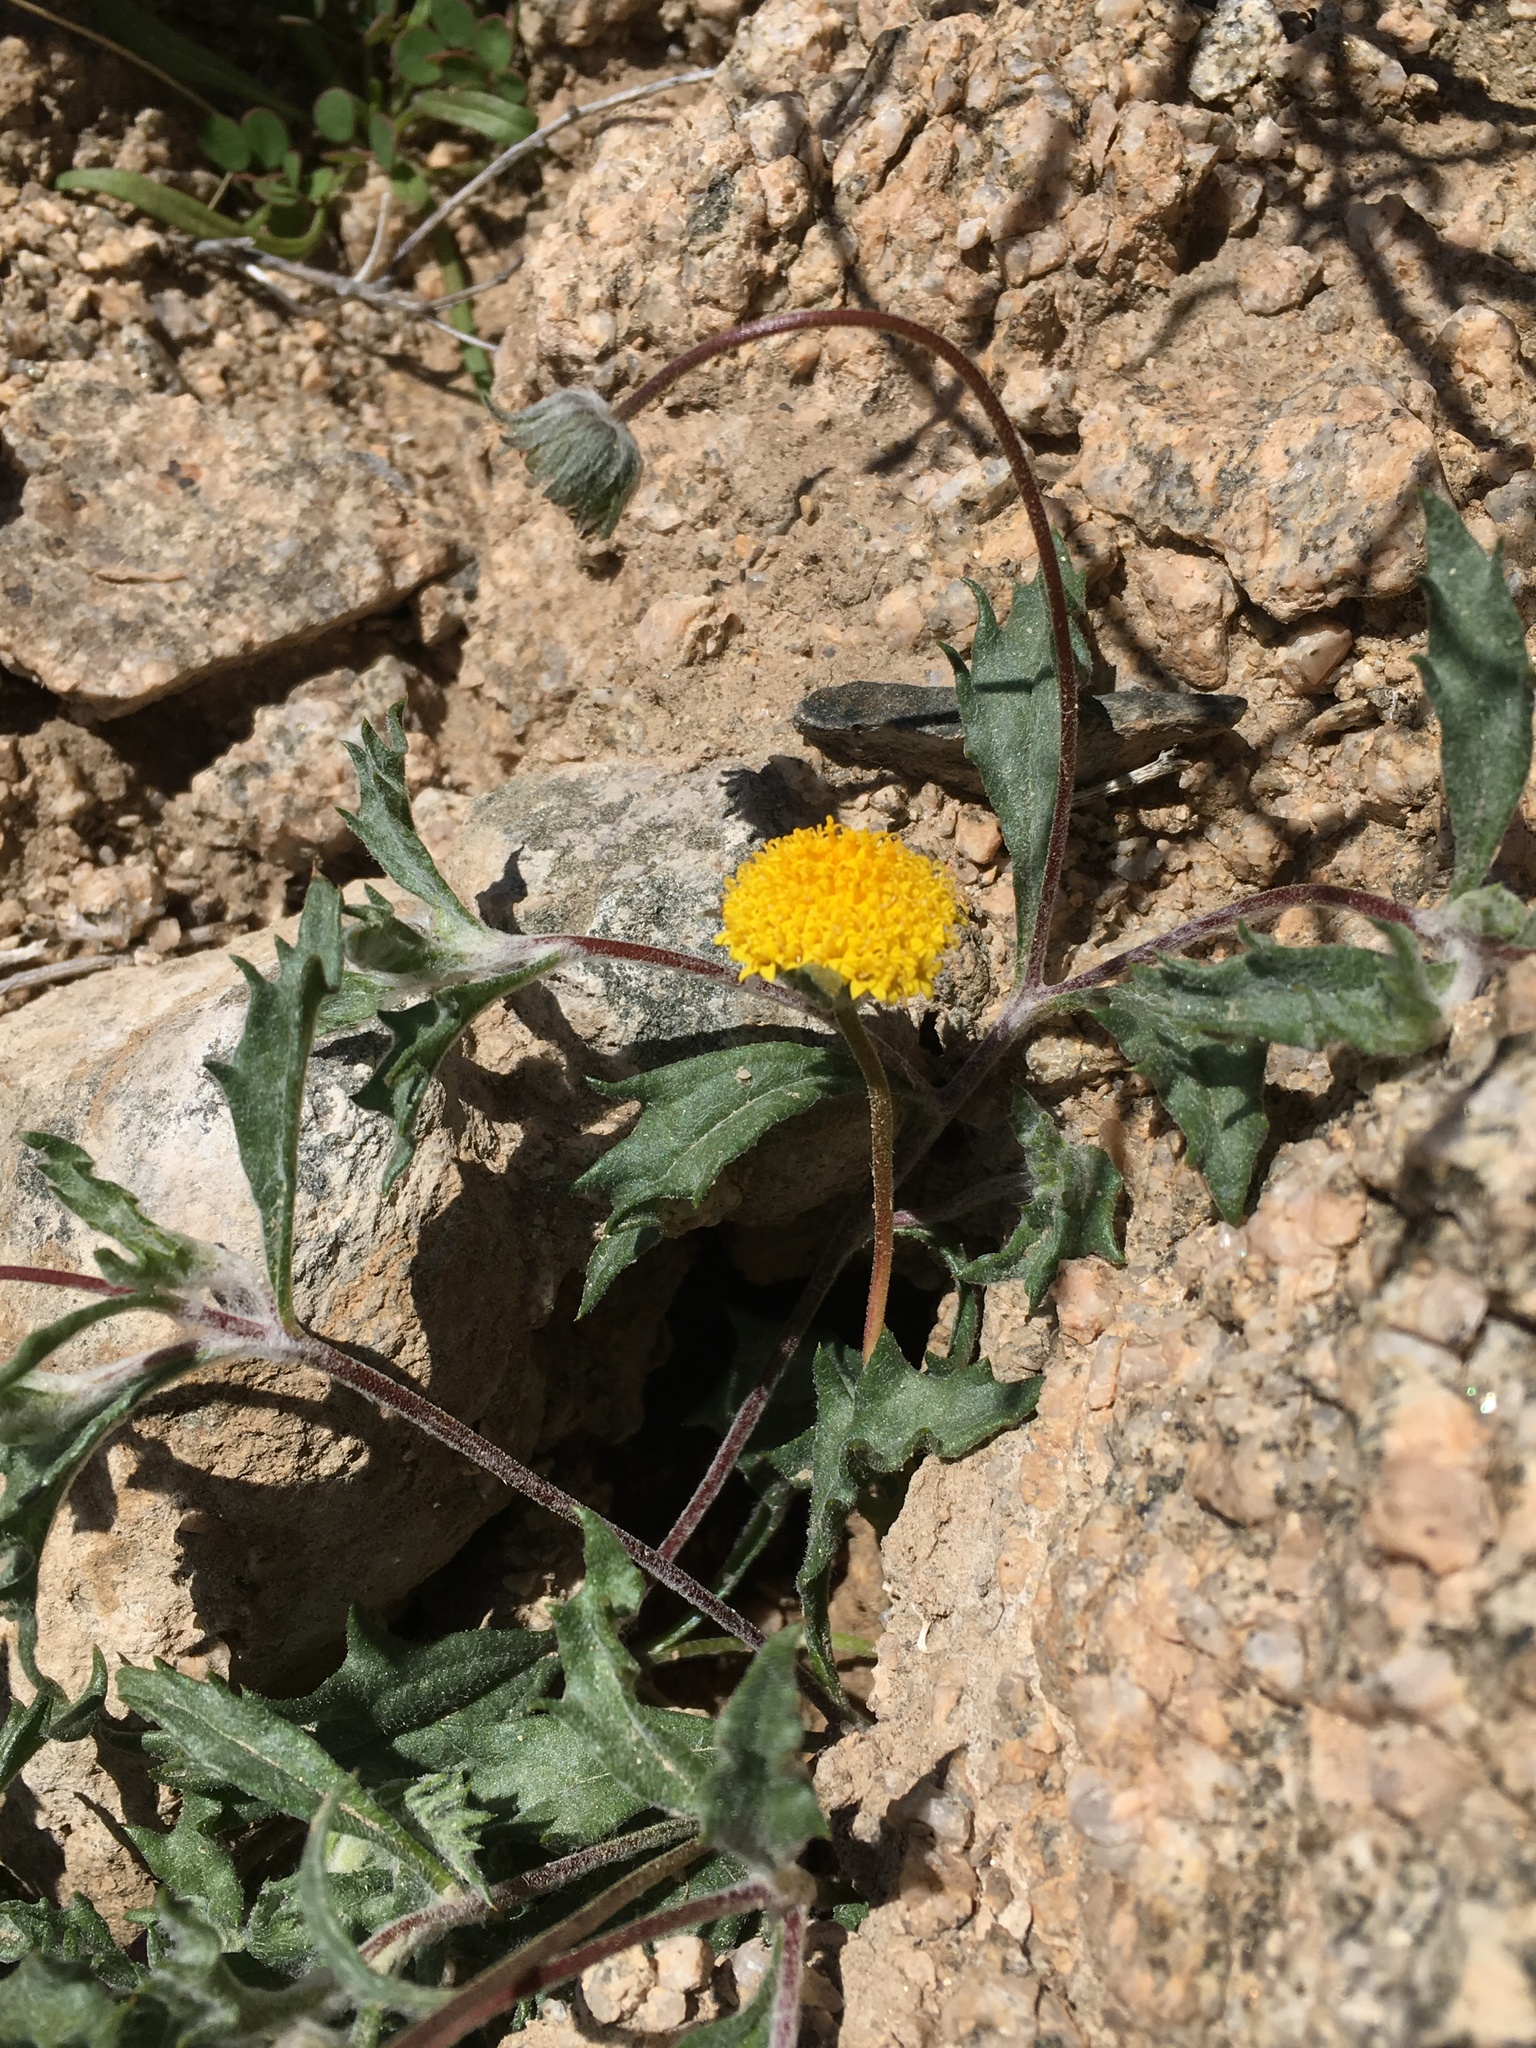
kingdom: Plantae
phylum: Tracheophyta
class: Magnoliopsida
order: Asterales
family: Asteraceae
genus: Trichoptilium
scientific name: Trichoptilium incisum
